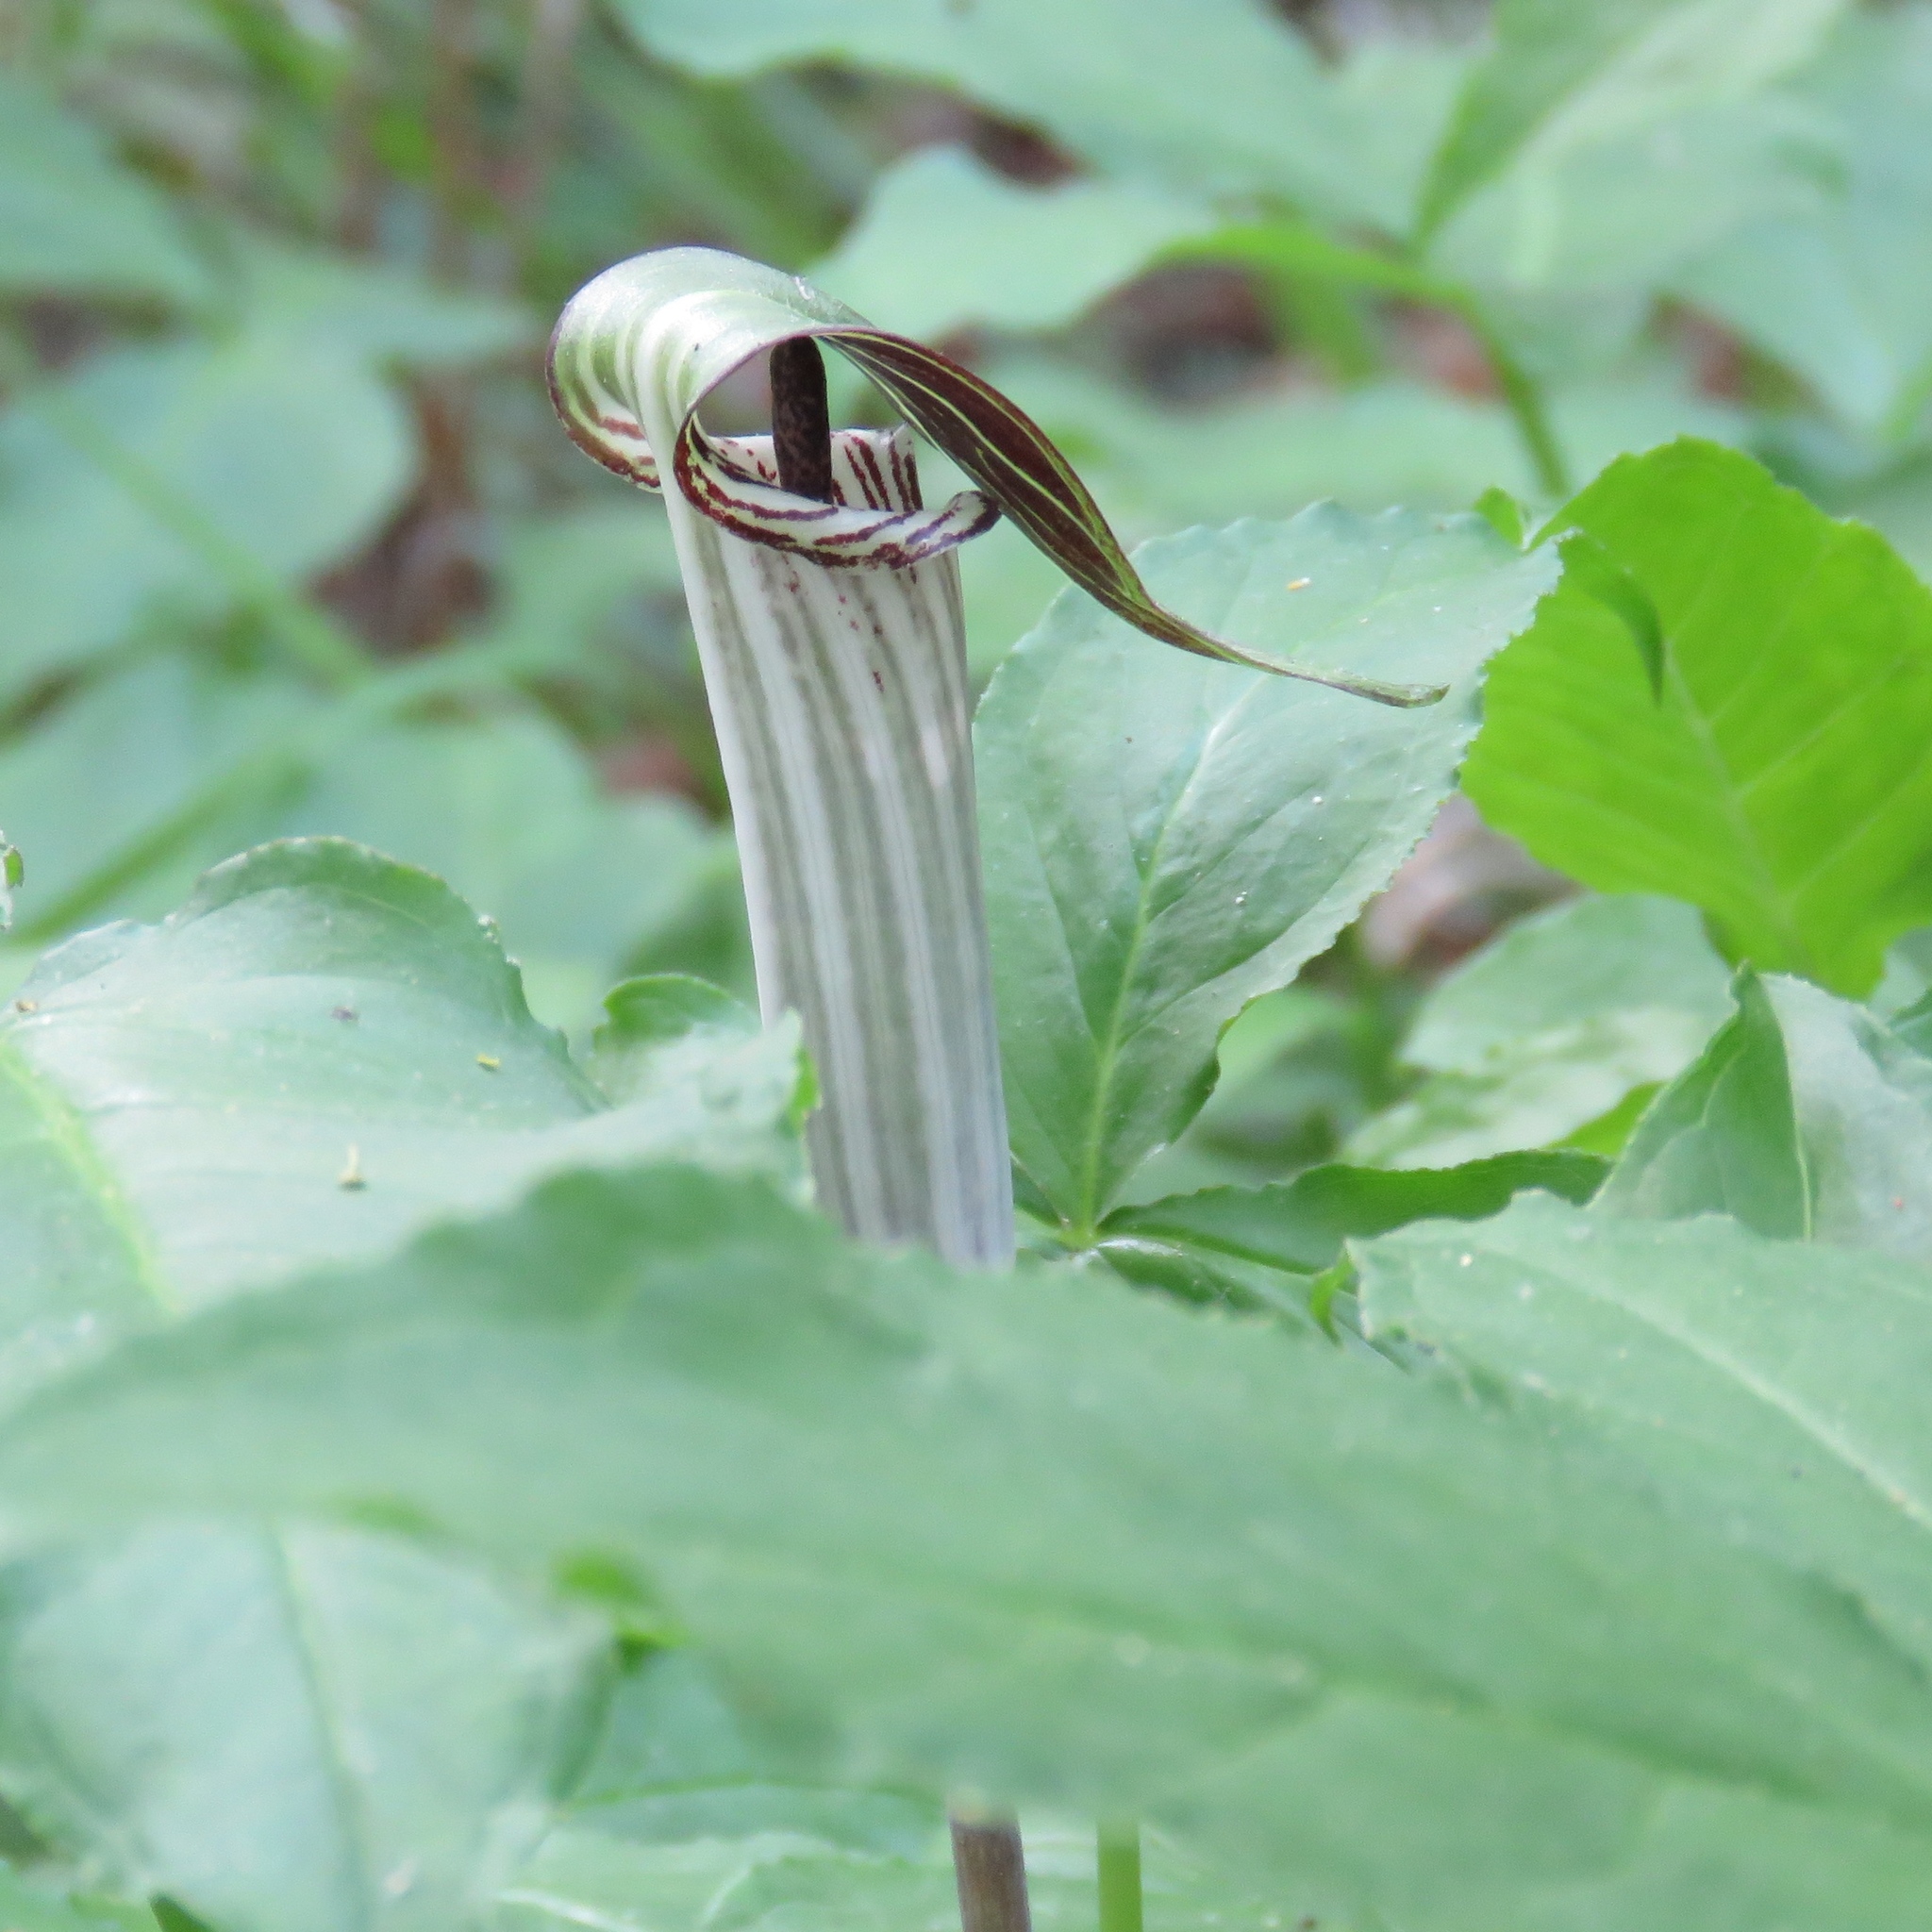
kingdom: Plantae
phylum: Tracheophyta
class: Liliopsida
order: Alismatales
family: Araceae
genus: Arisaema
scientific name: Arisaema triphyllum
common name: Jack-in-the-pulpit
